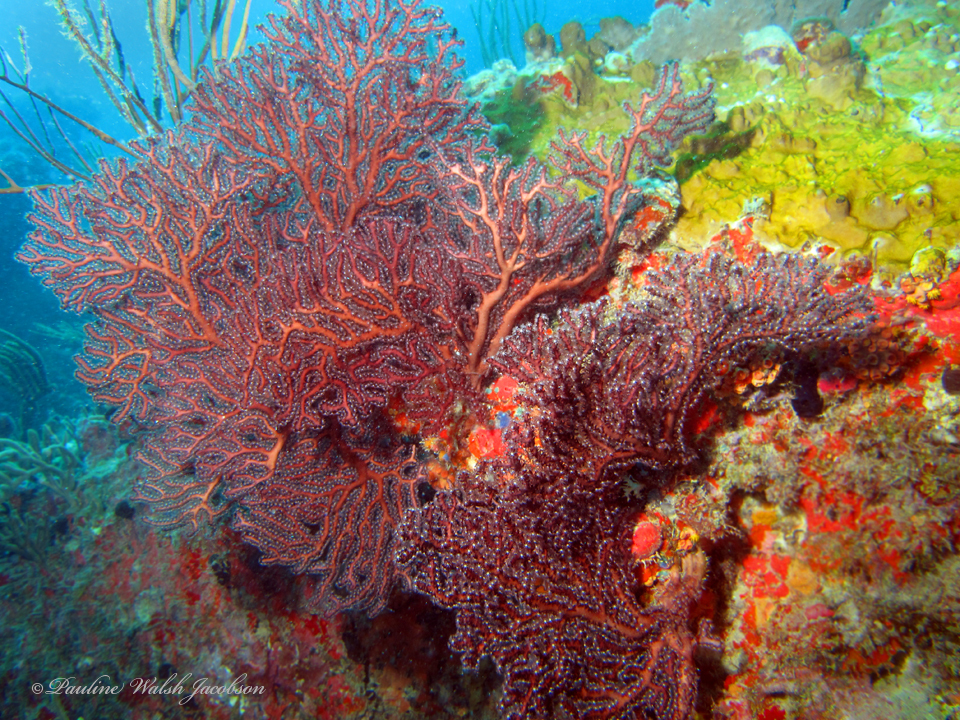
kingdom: Animalia
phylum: Cnidaria
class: Anthozoa
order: Malacalcyonacea
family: Melithaeidae
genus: Iciligorgia
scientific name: Iciligorgia schrammi
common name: Black sea fan
